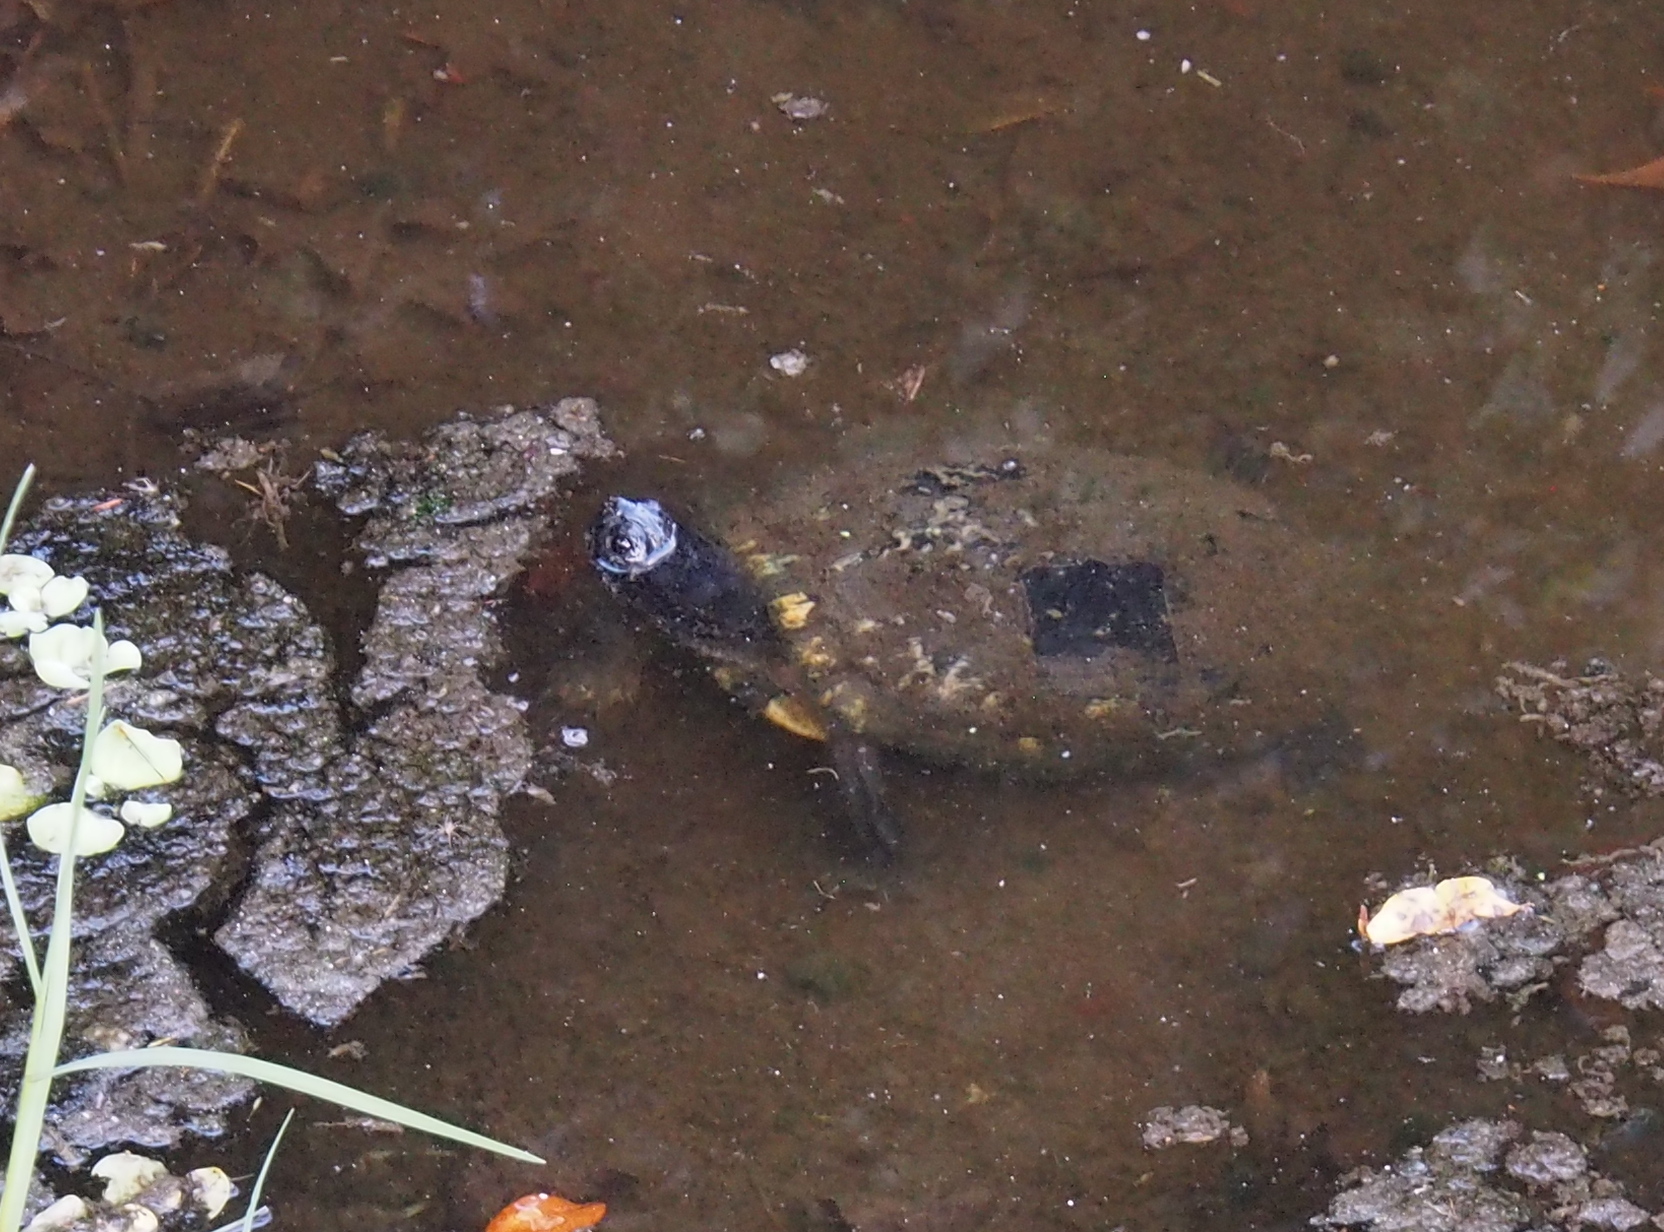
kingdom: Animalia
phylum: Chordata
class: Testudines
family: Emydidae
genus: Trachemys
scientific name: Trachemys scripta
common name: Slider
